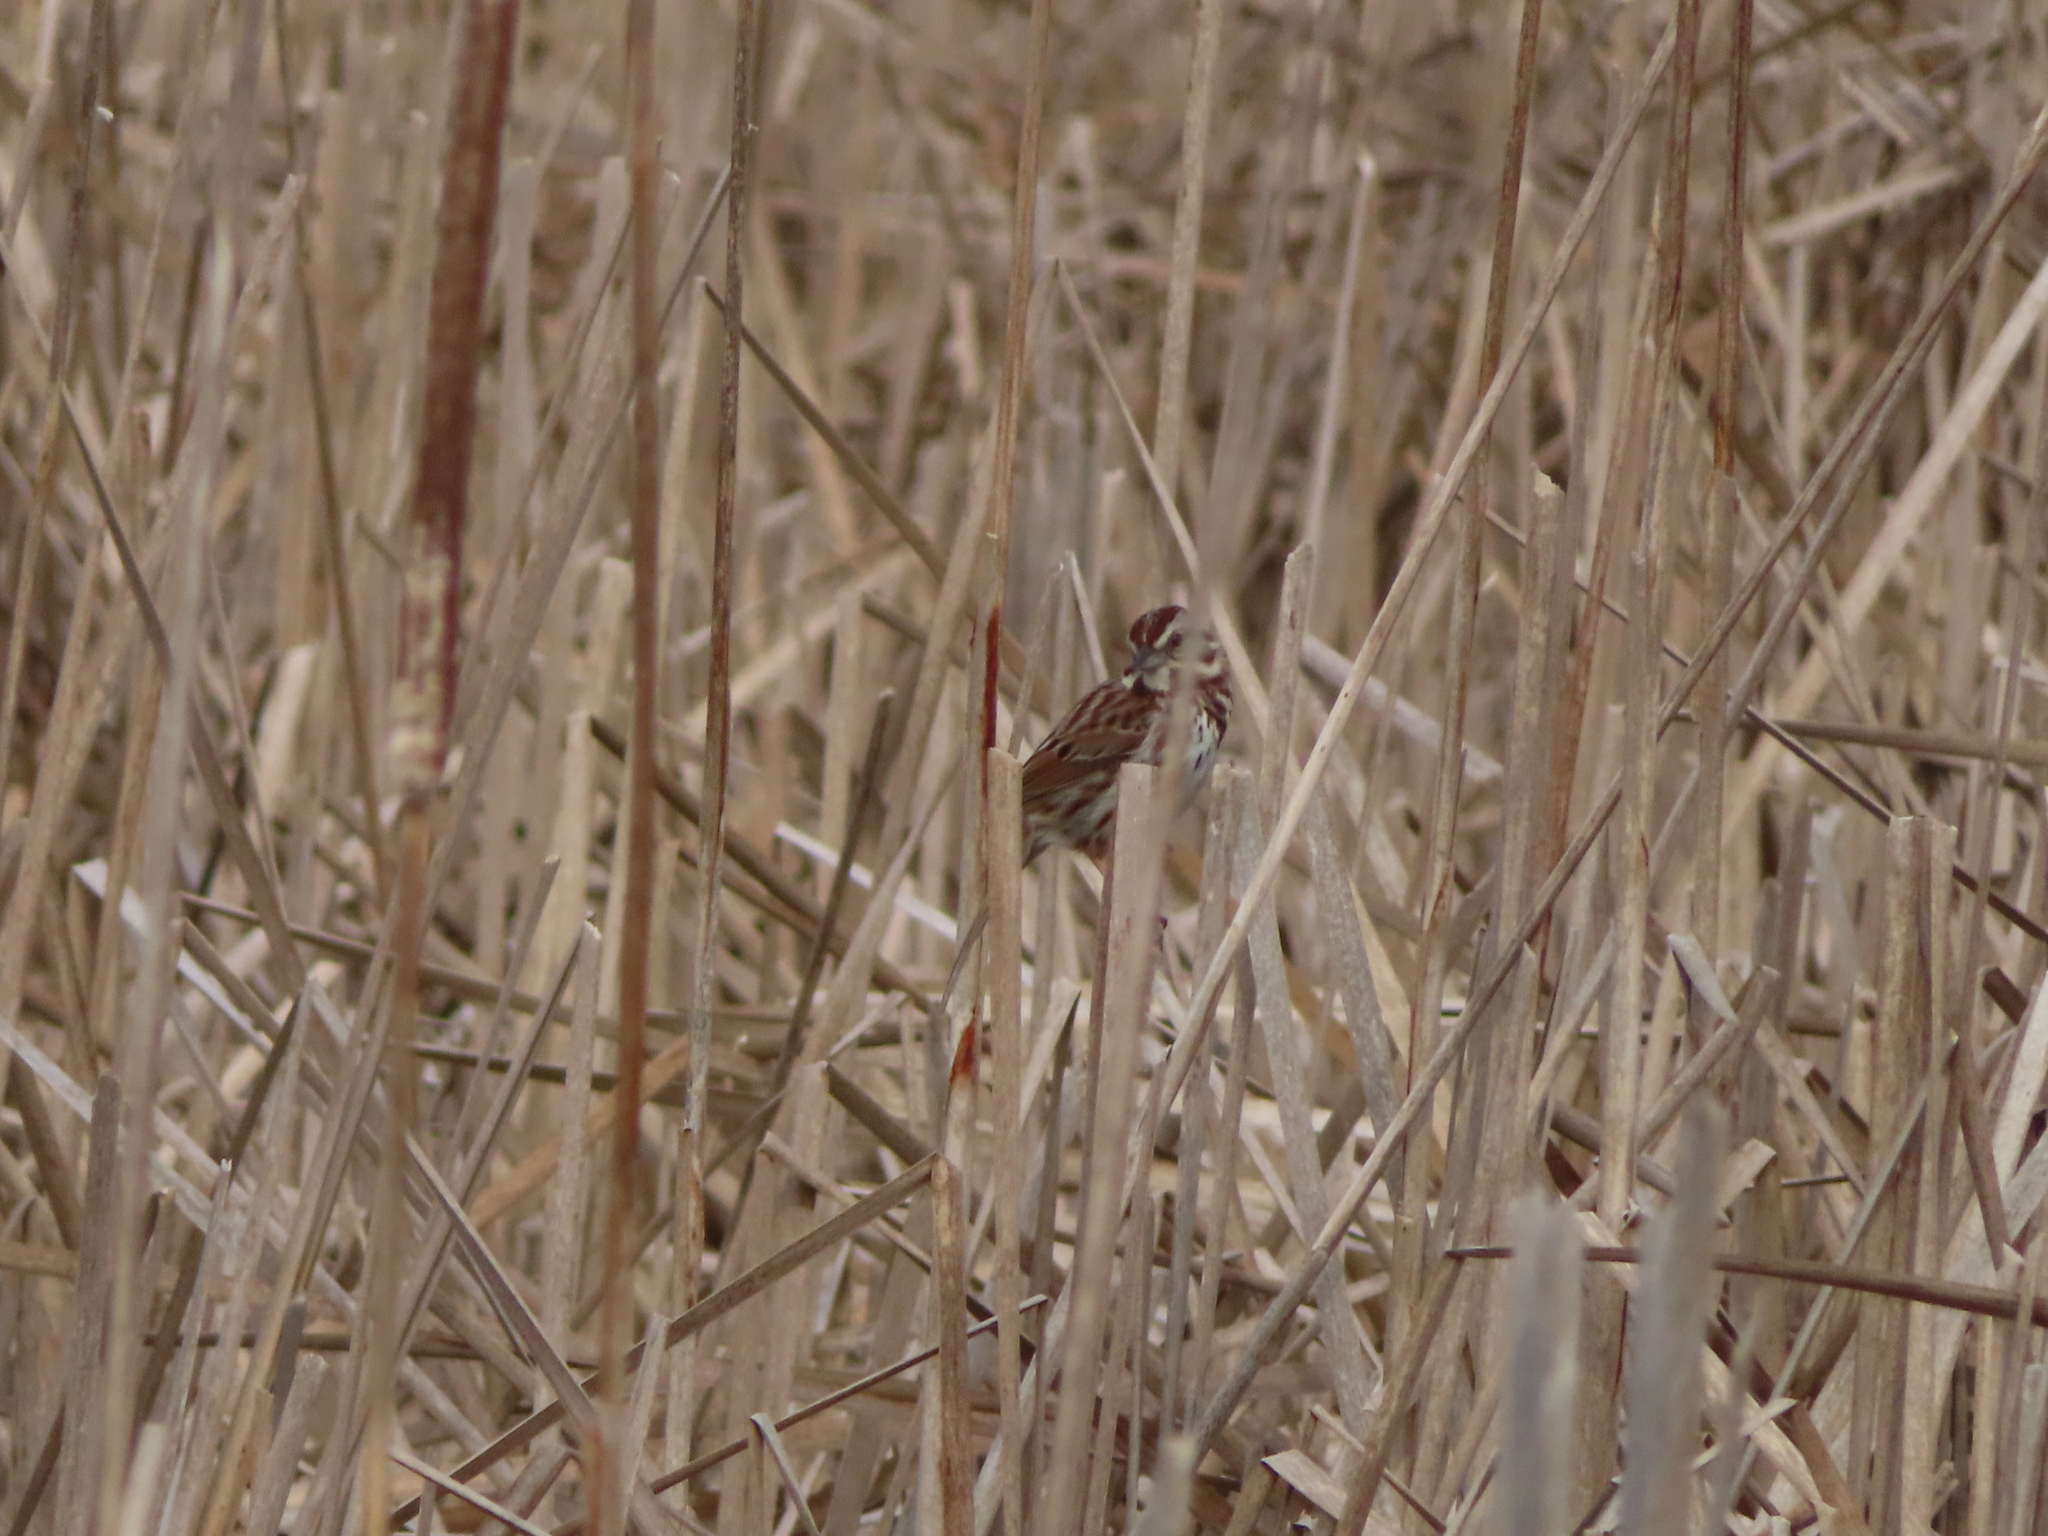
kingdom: Animalia
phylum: Chordata
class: Aves
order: Passeriformes
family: Passerellidae
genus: Melospiza
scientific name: Melospiza melodia
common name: Song sparrow
